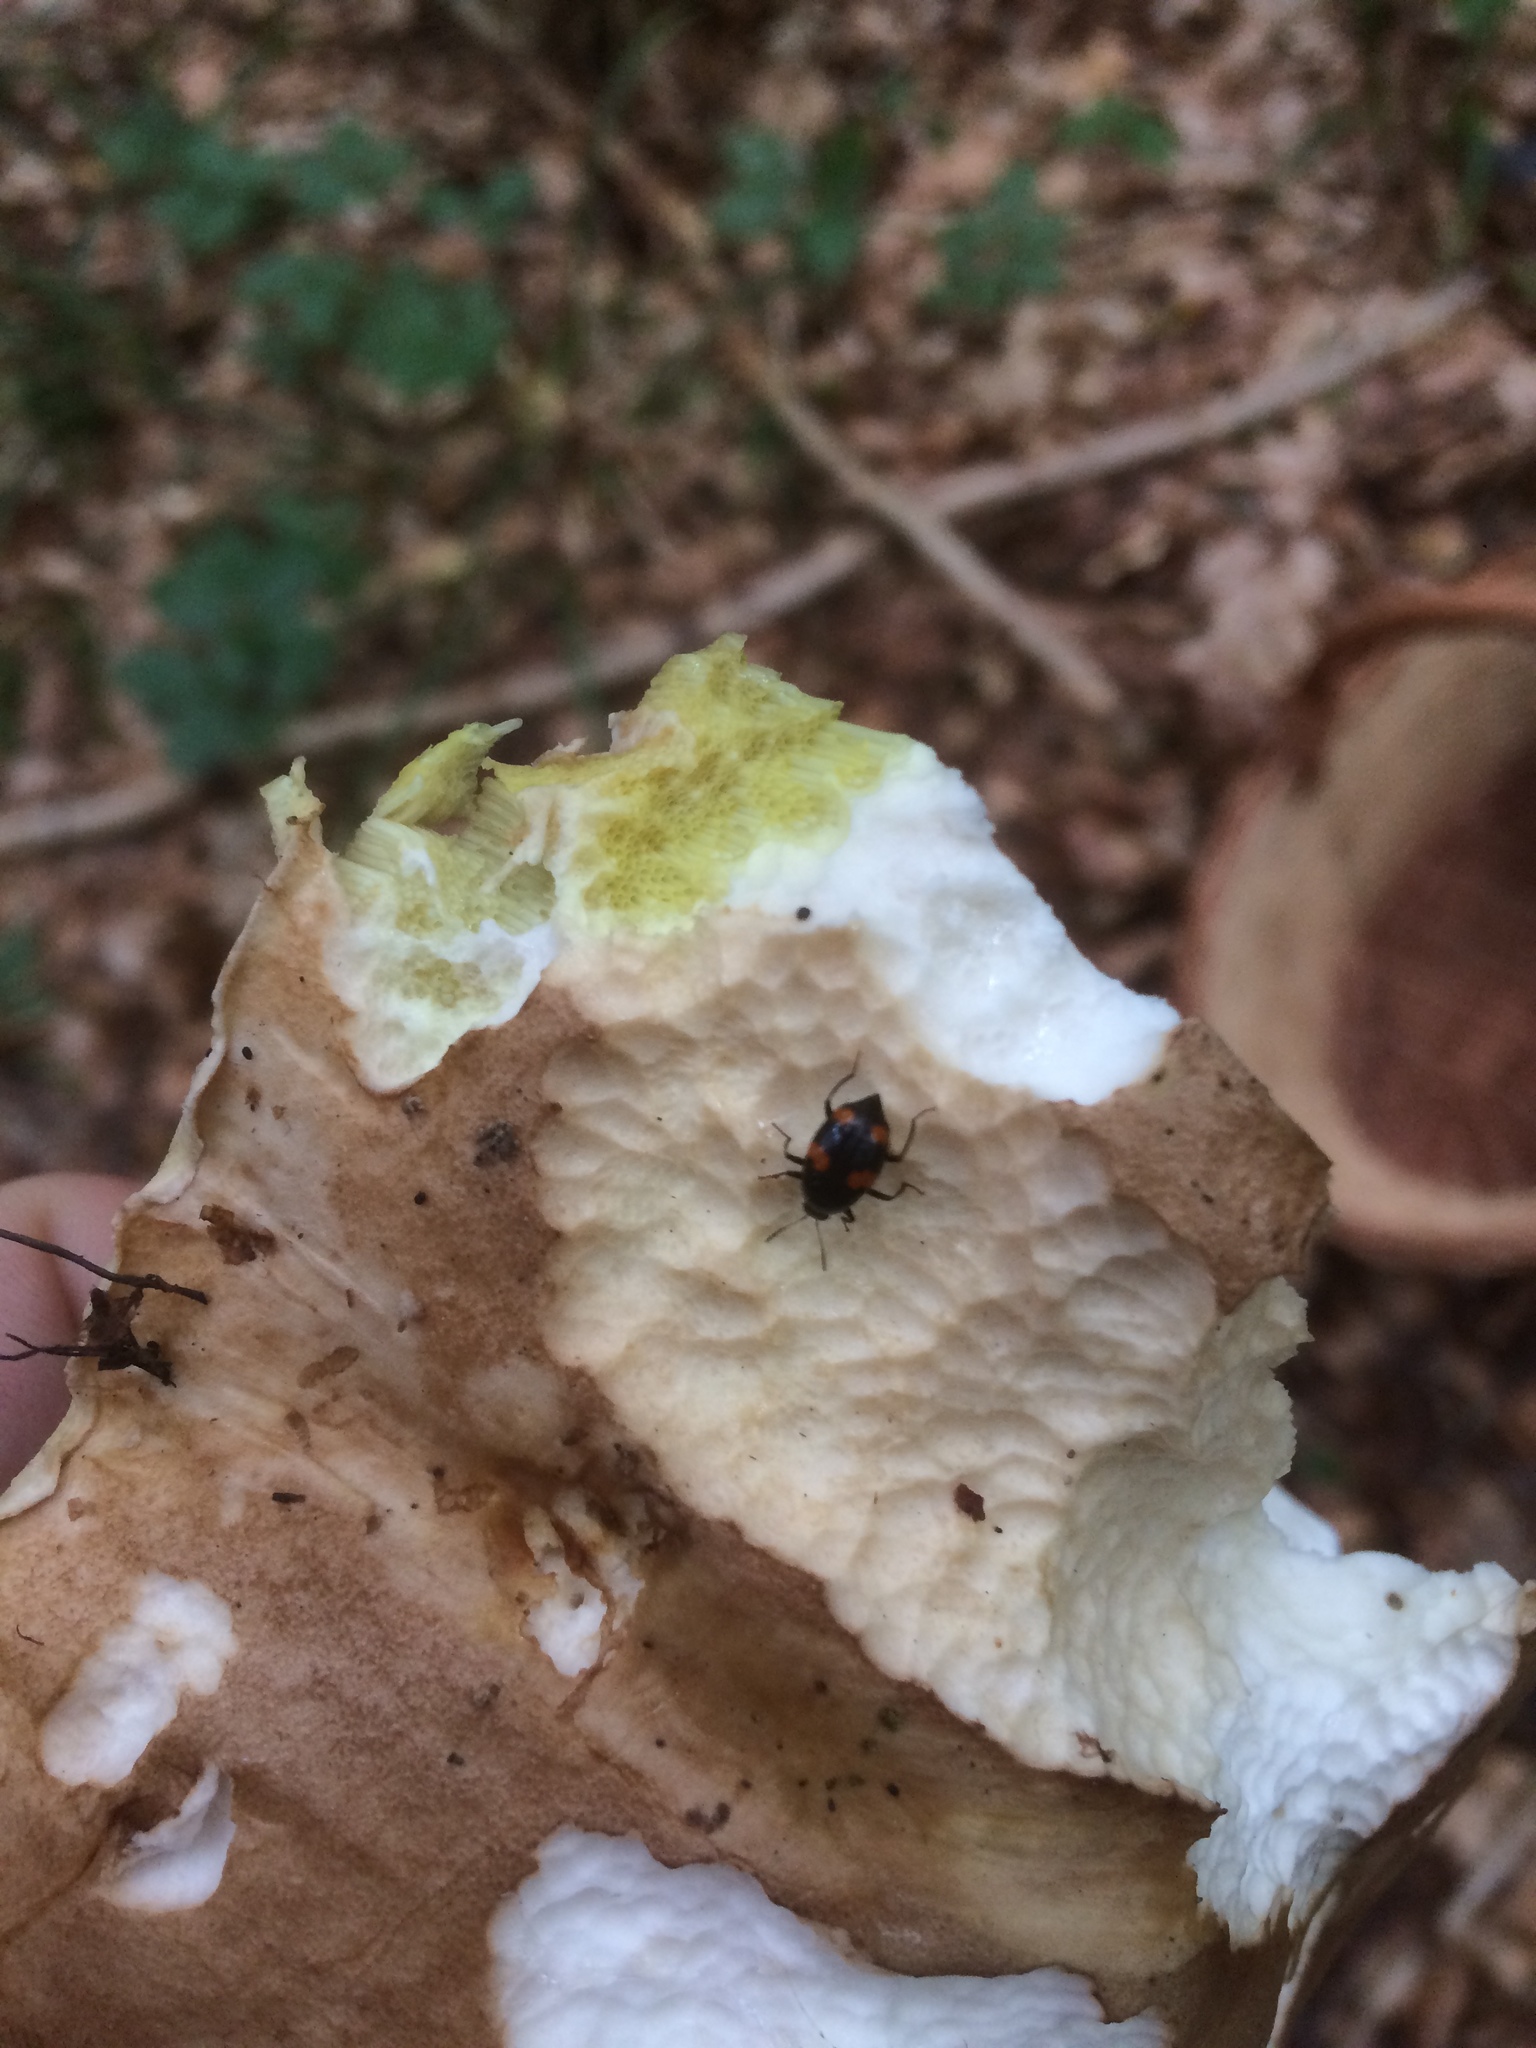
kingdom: Animalia
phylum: Arthropoda
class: Insecta
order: Coleoptera
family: Staphylinidae
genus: Scaphidium
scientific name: Scaphidium quadrimaculatum
